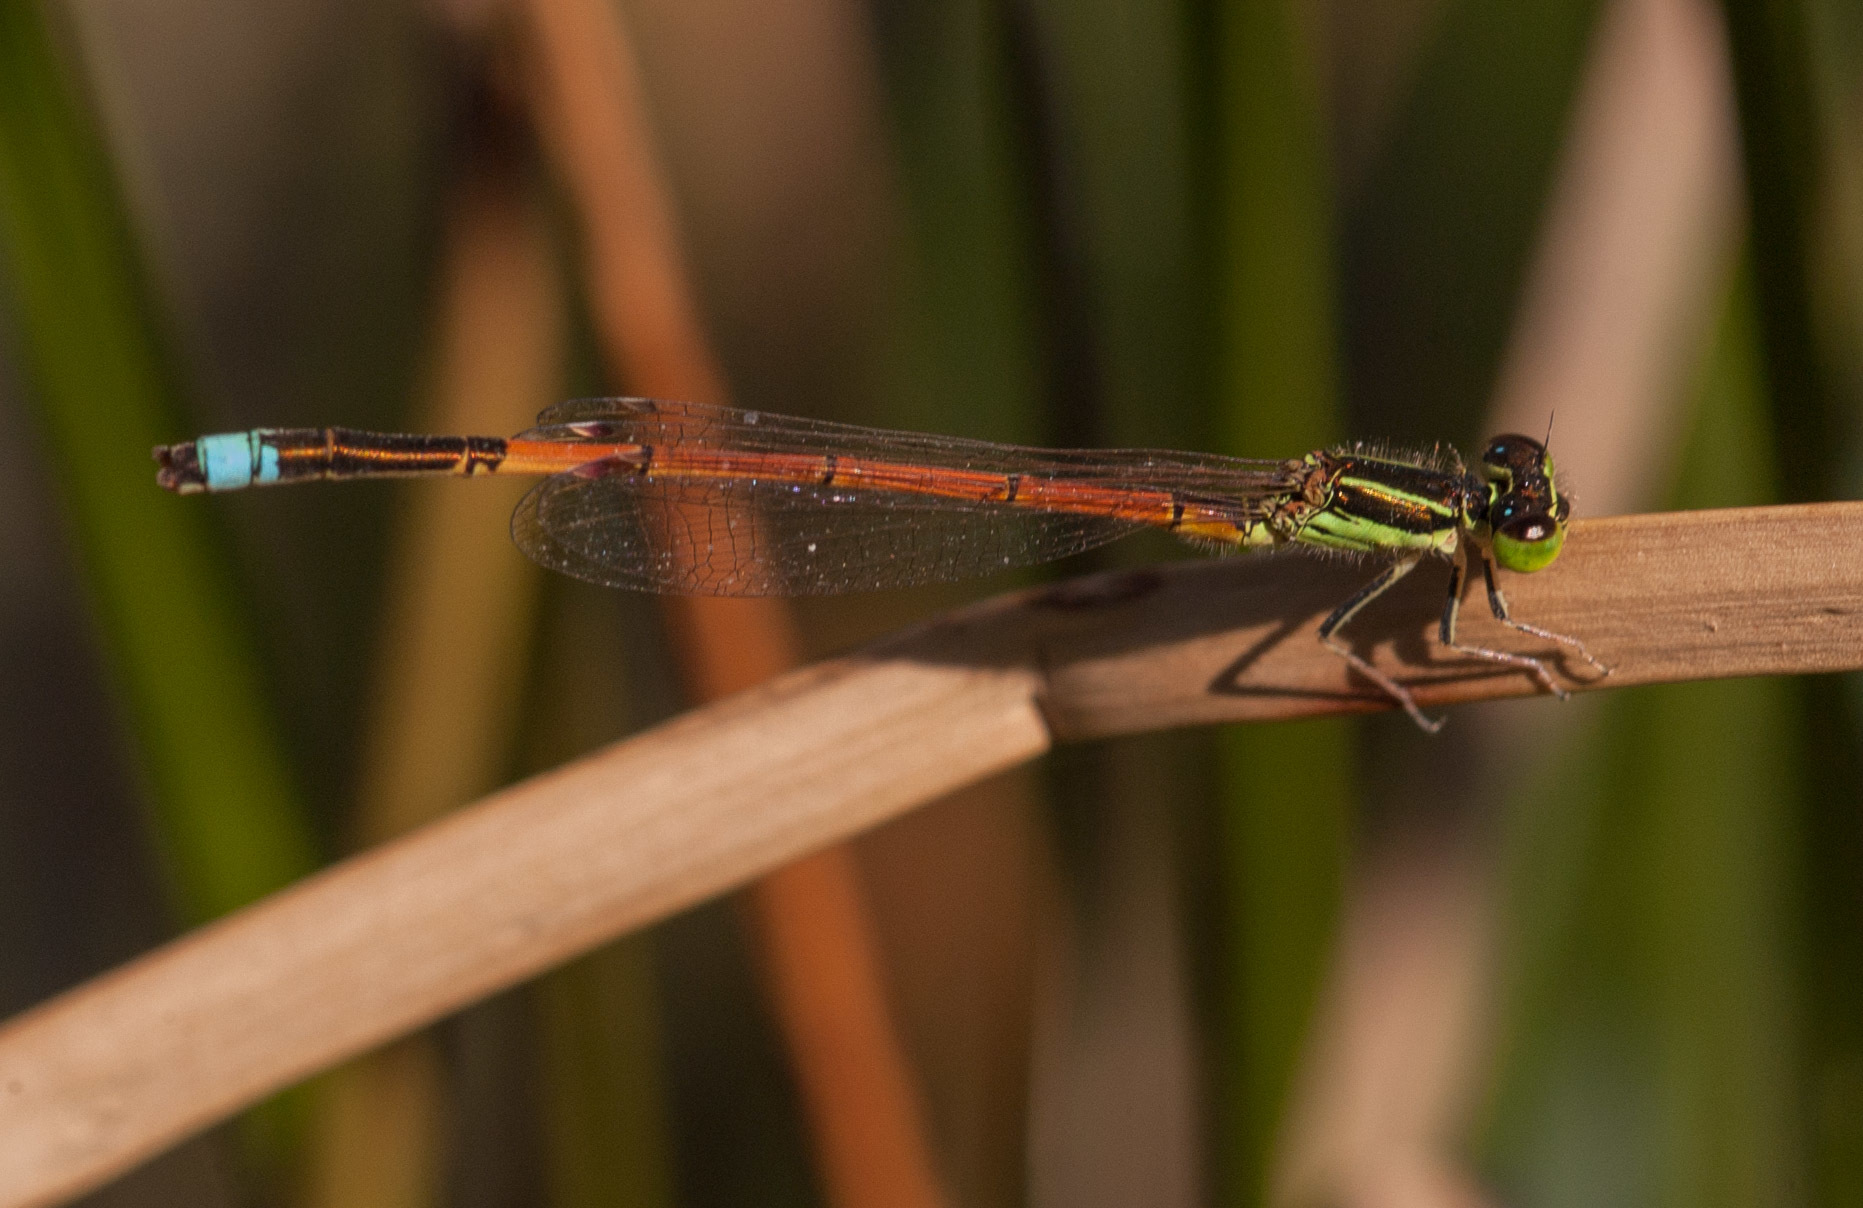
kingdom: Animalia
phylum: Arthropoda
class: Insecta
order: Odonata
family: Coenagrionidae
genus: Ischnura
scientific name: Ischnura aurora
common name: Gossamer damselfly
